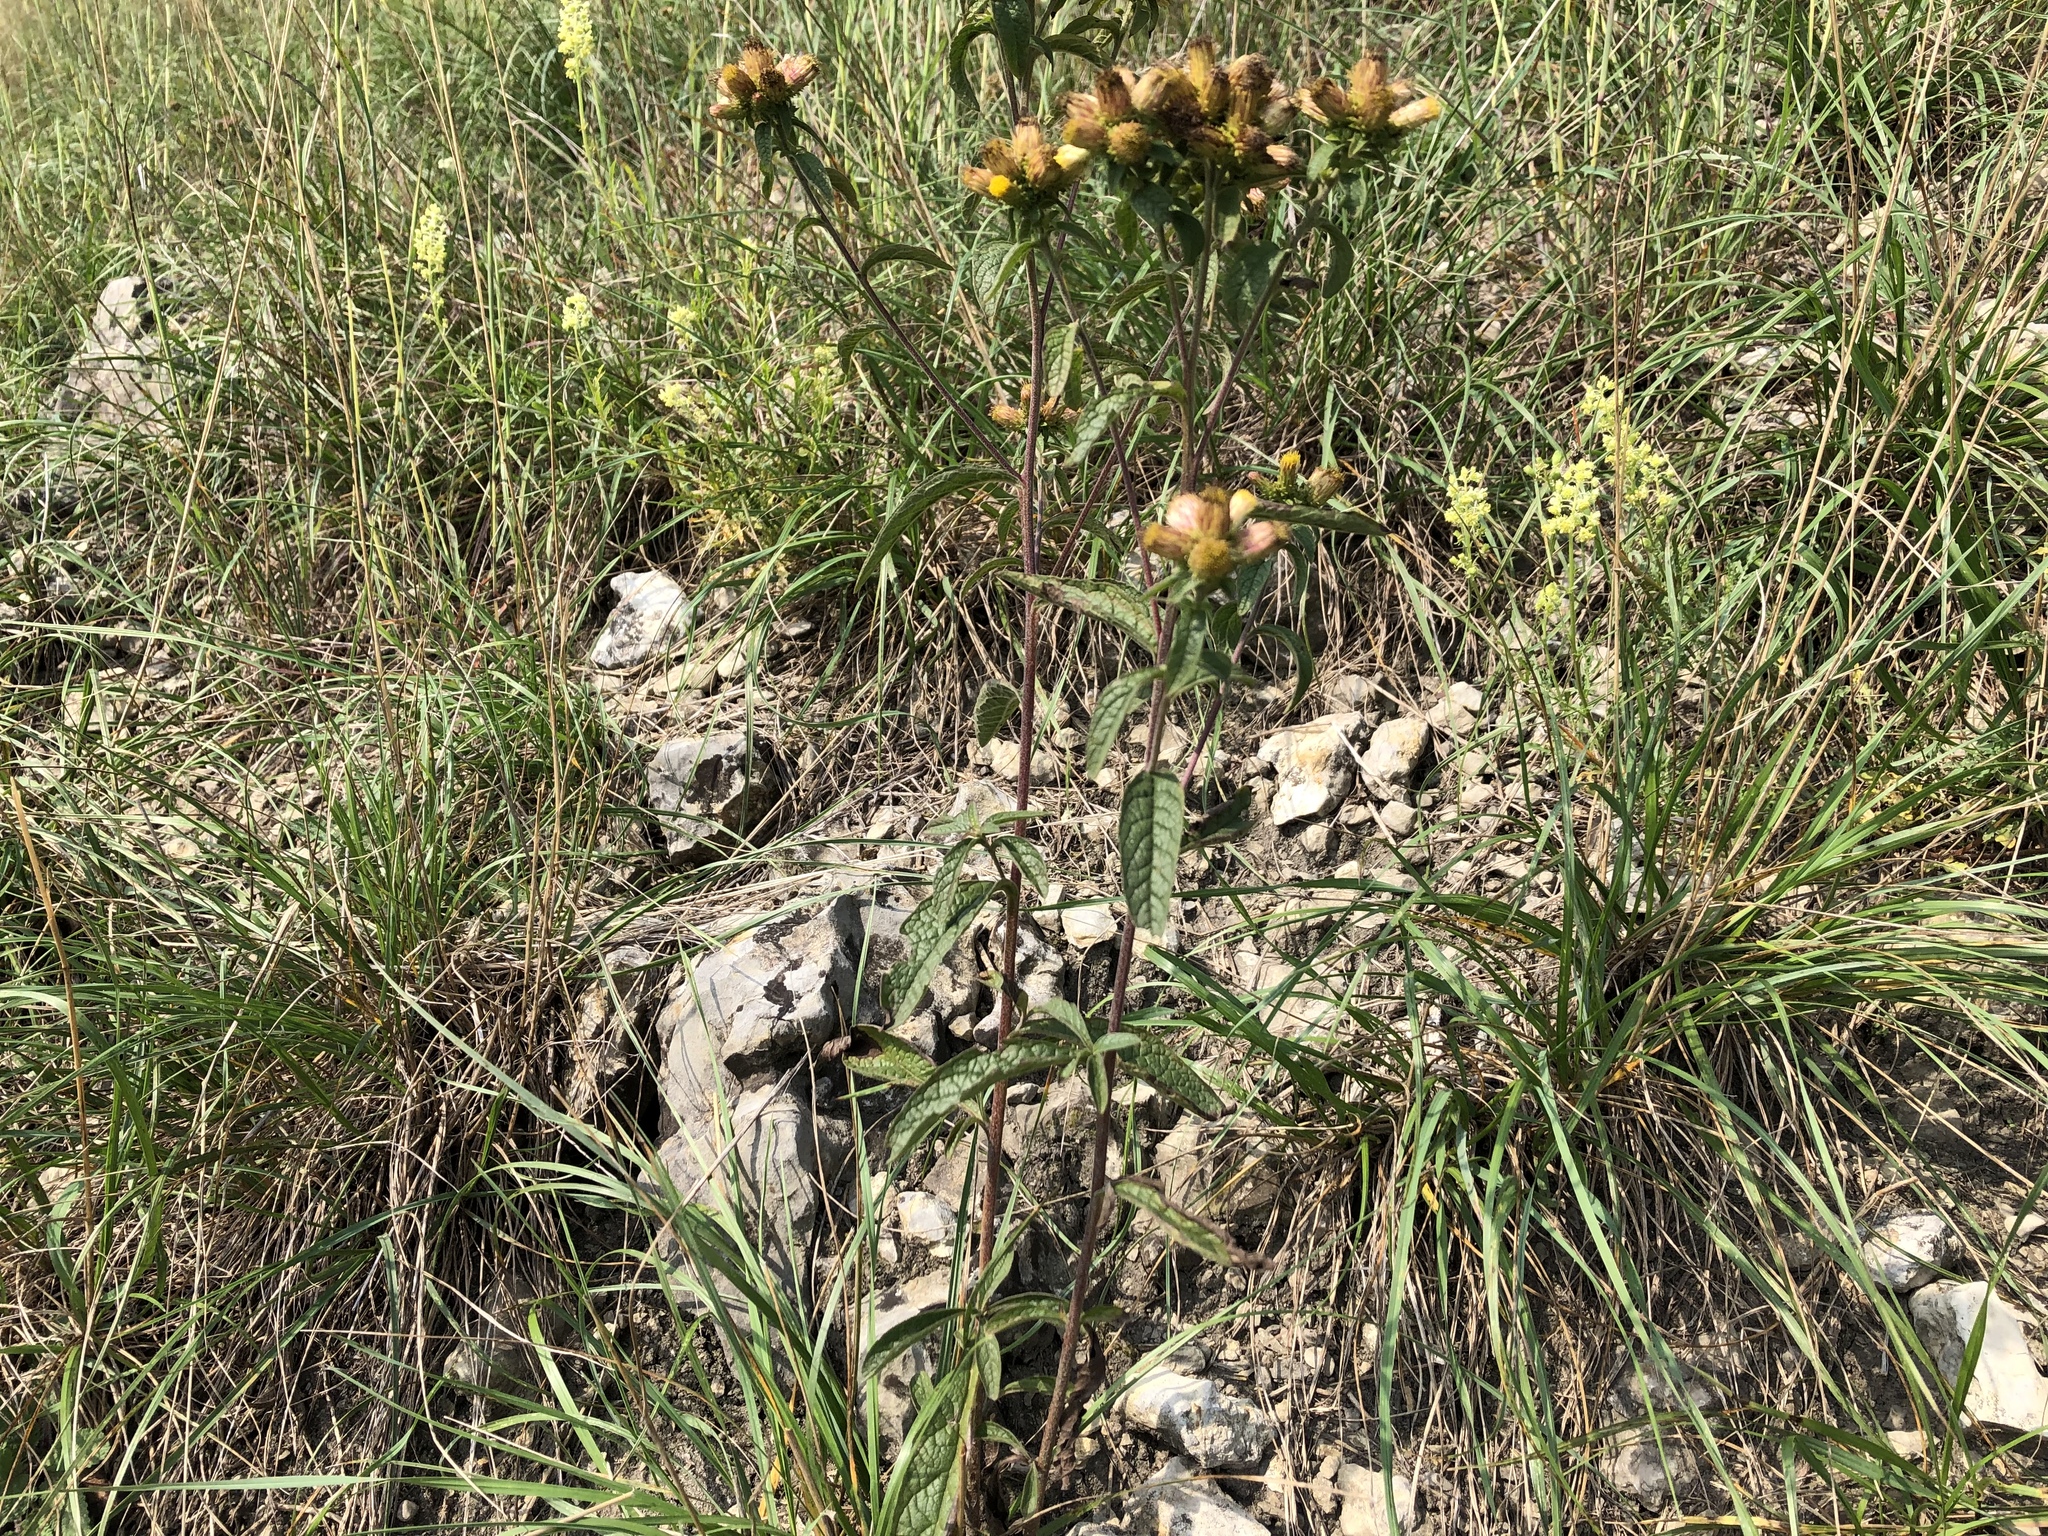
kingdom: Plantae
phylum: Tracheophyta
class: Magnoliopsida
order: Asterales
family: Asteraceae
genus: Pentanema
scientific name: Pentanema squarrosum
